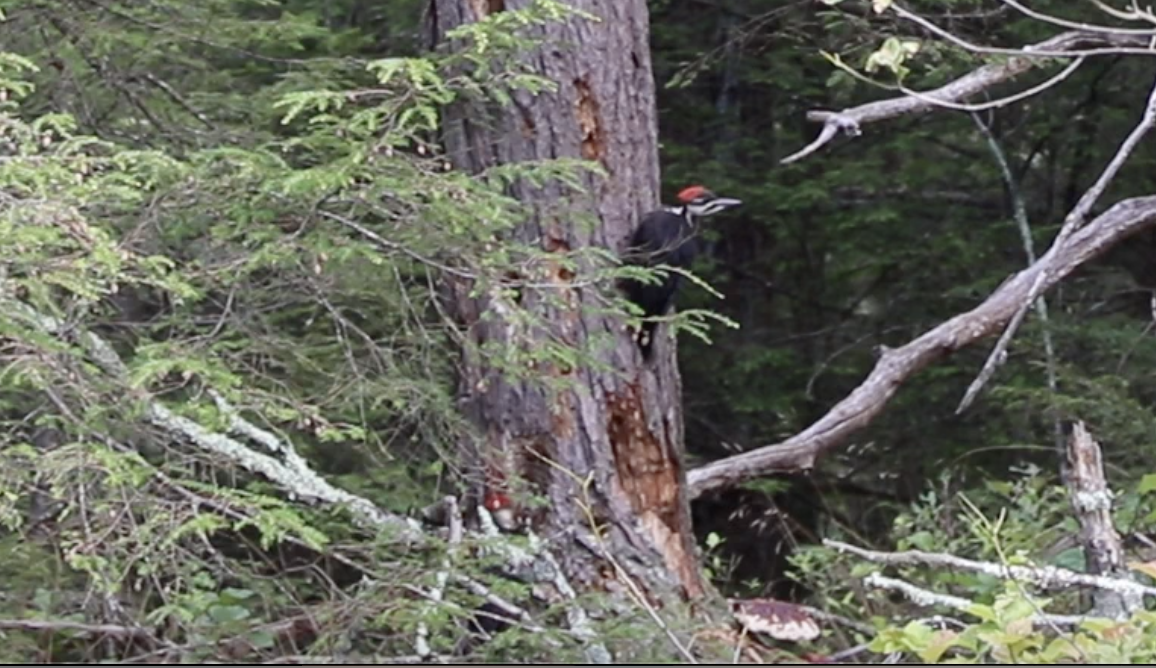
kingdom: Animalia
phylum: Chordata
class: Aves
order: Piciformes
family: Picidae
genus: Dryocopus
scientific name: Dryocopus pileatus
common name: Pileated woodpecker
